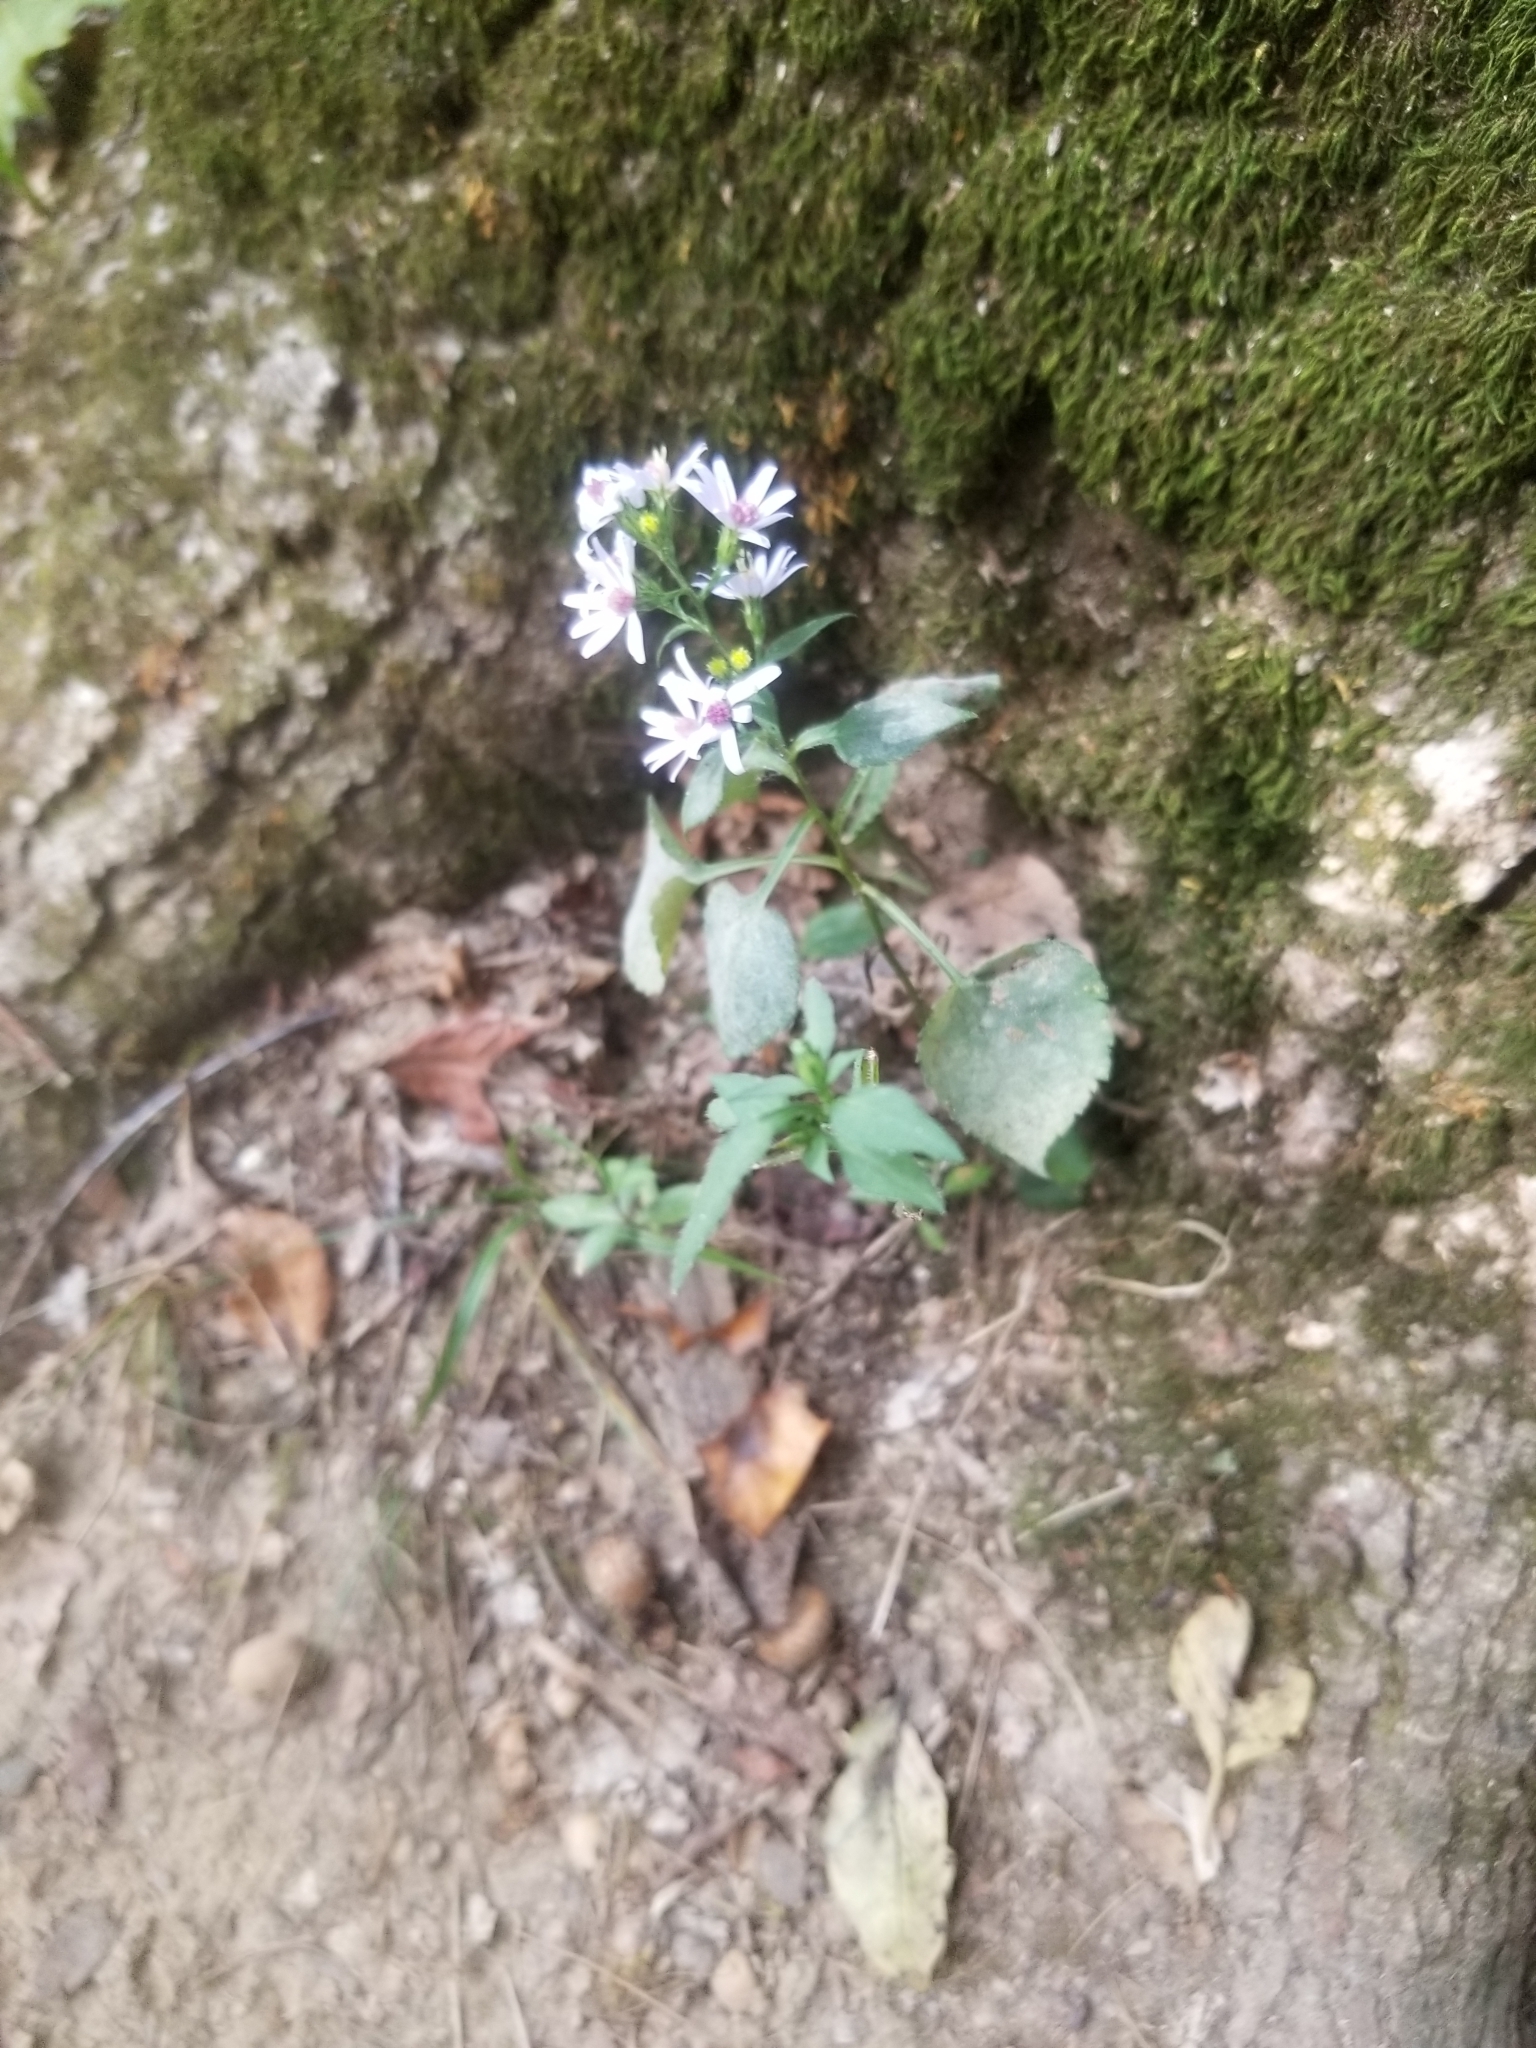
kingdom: Plantae
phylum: Tracheophyta
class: Magnoliopsida
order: Asterales
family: Asteraceae
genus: Symphyotrichum
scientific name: Symphyotrichum cordifolium
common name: Beeweed
